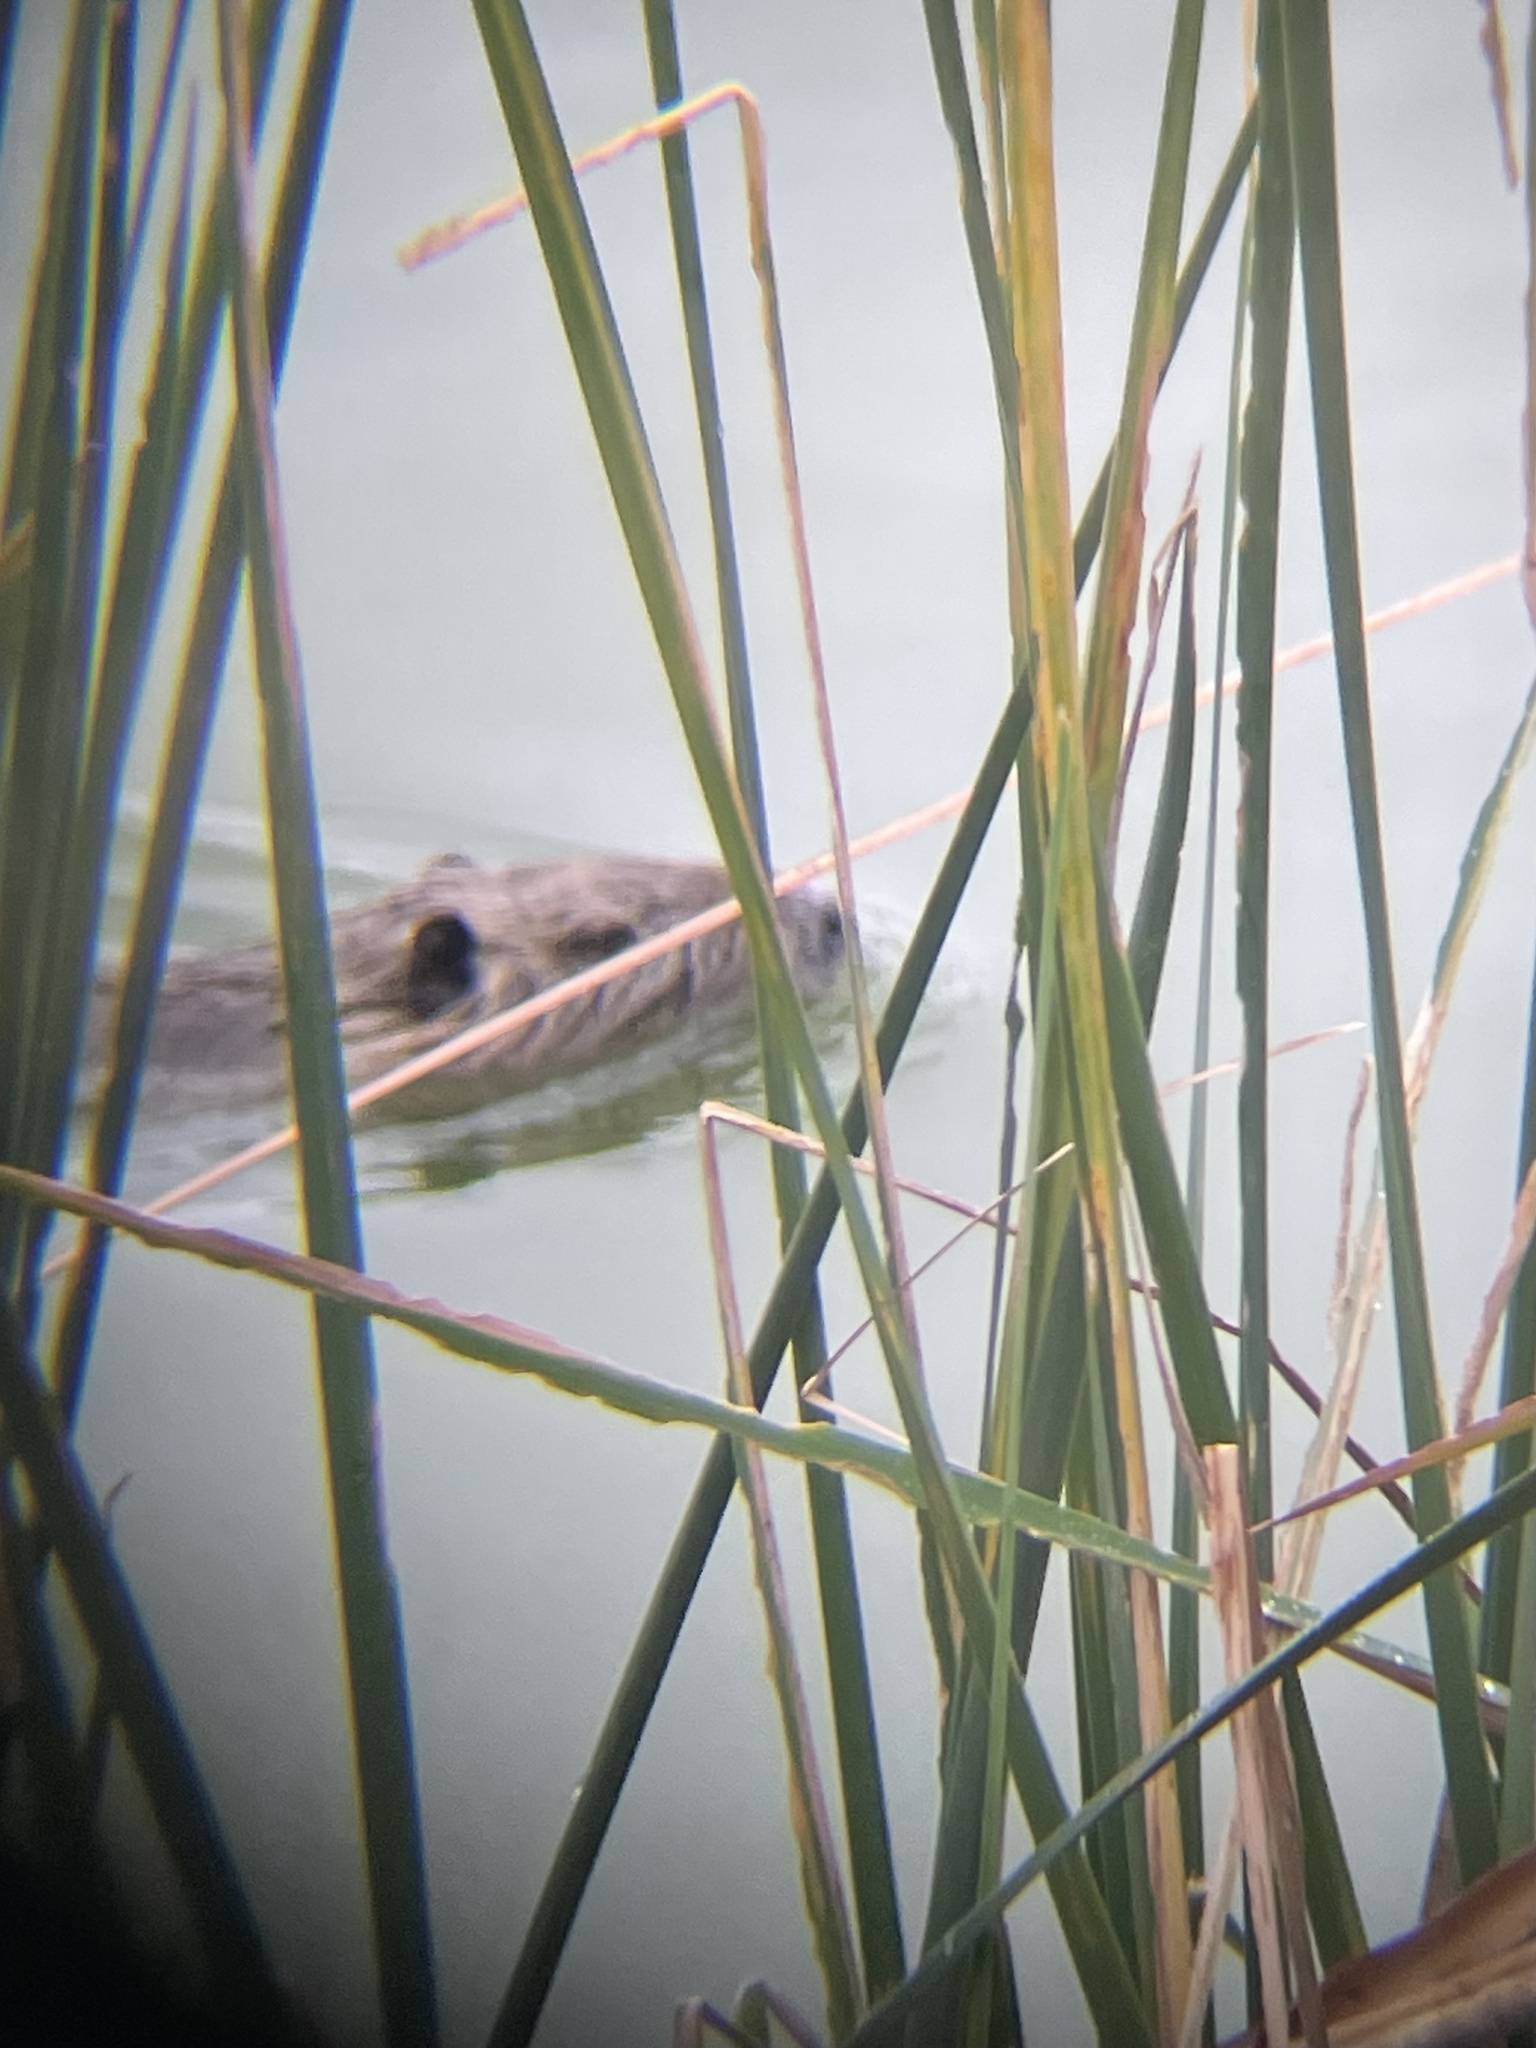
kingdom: Animalia
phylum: Chordata
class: Mammalia
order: Rodentia
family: Myocastoridae
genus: Myocastor
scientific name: Myocastor coypus
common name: Coypu
